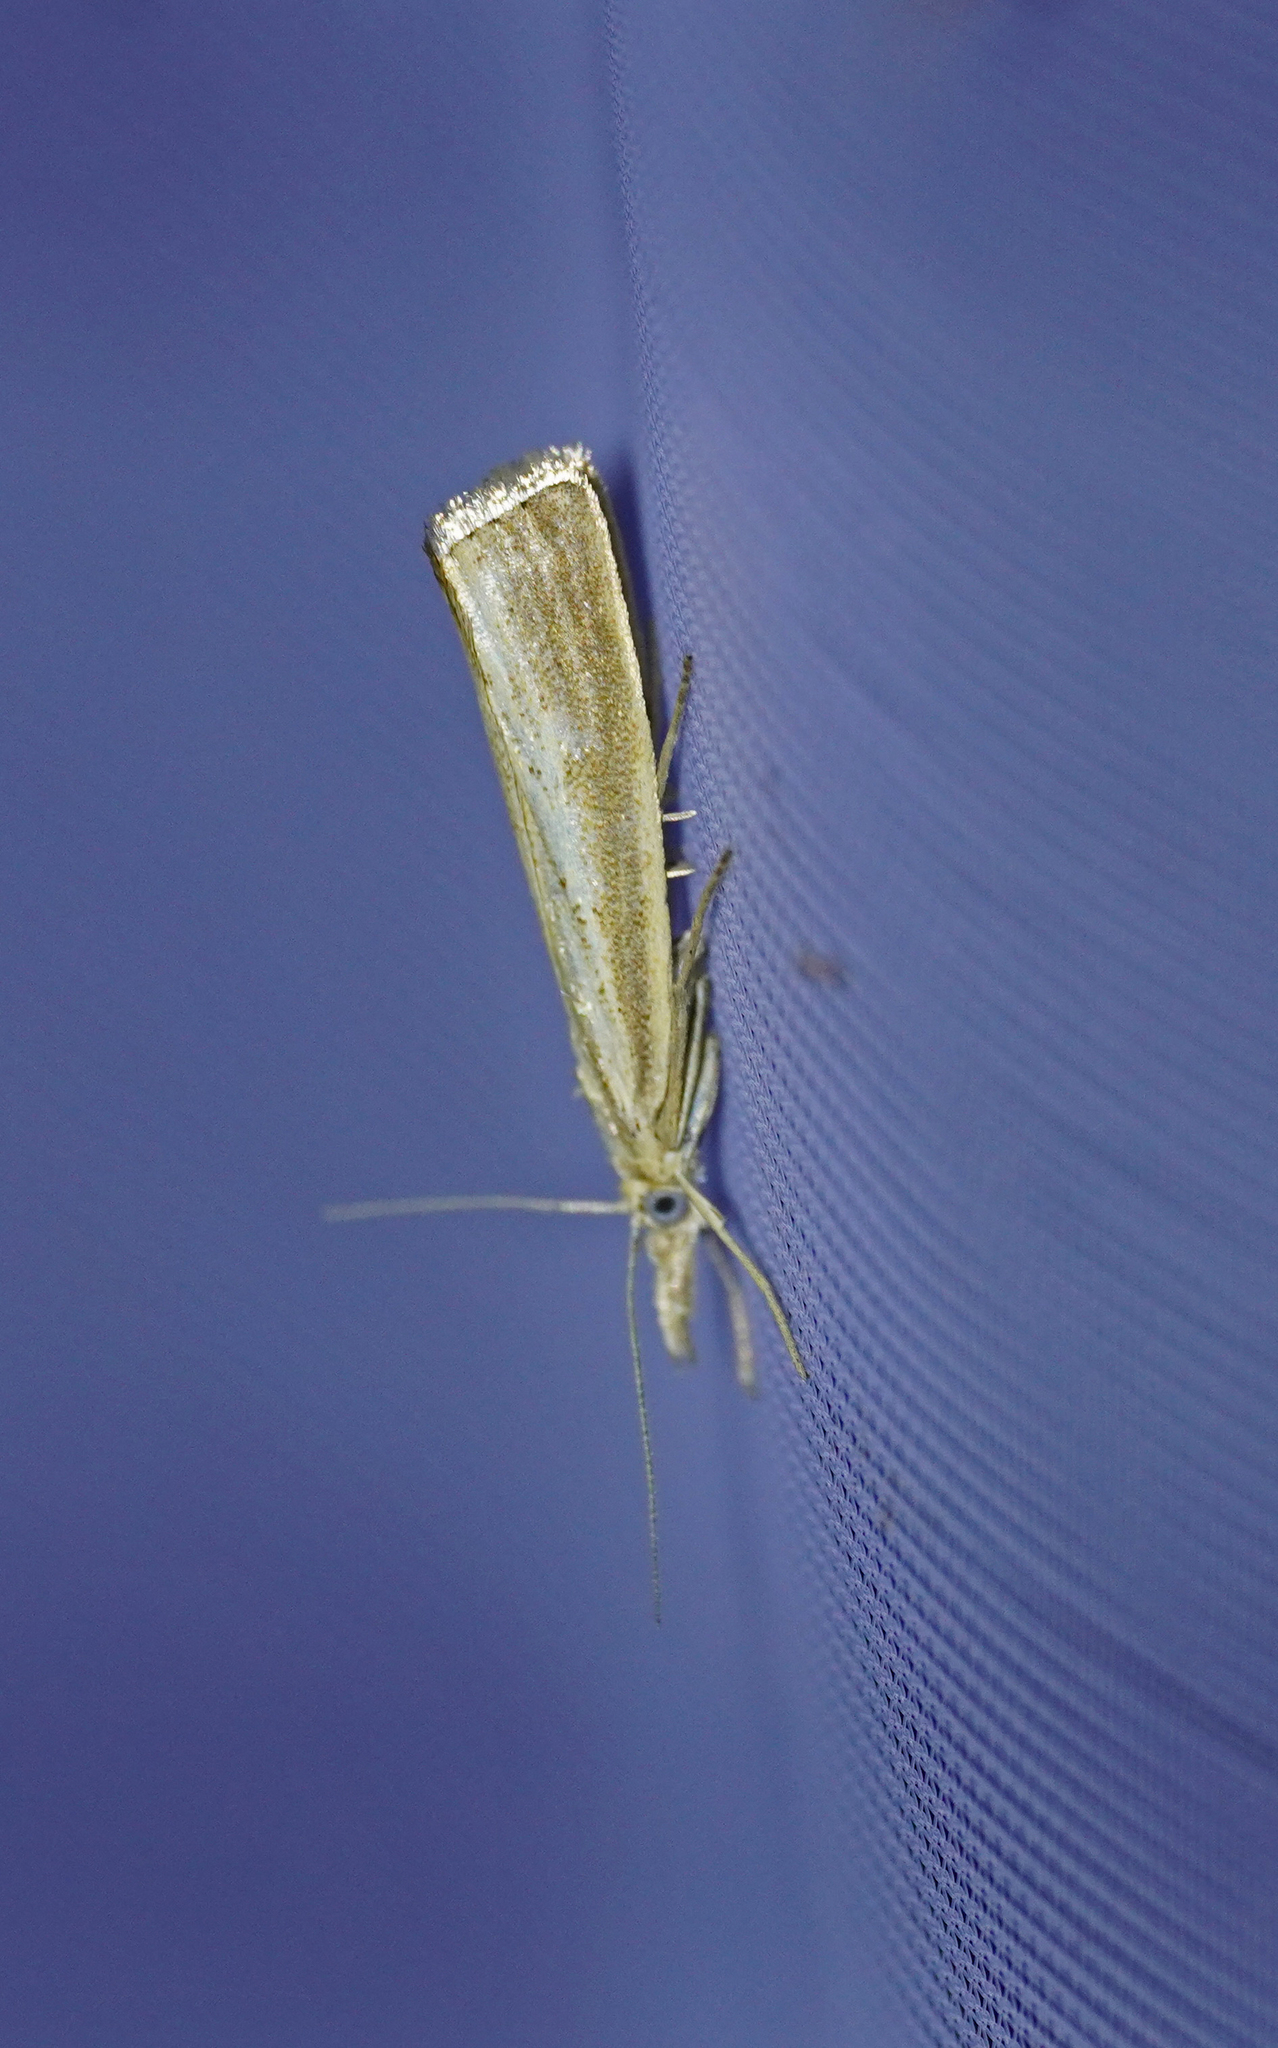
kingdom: Animalia
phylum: Arthropoda
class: Insecta
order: Lepidoptera
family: Crambidae
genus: Agriphila
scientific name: Agriphila straminella
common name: Straw grass-veneer
